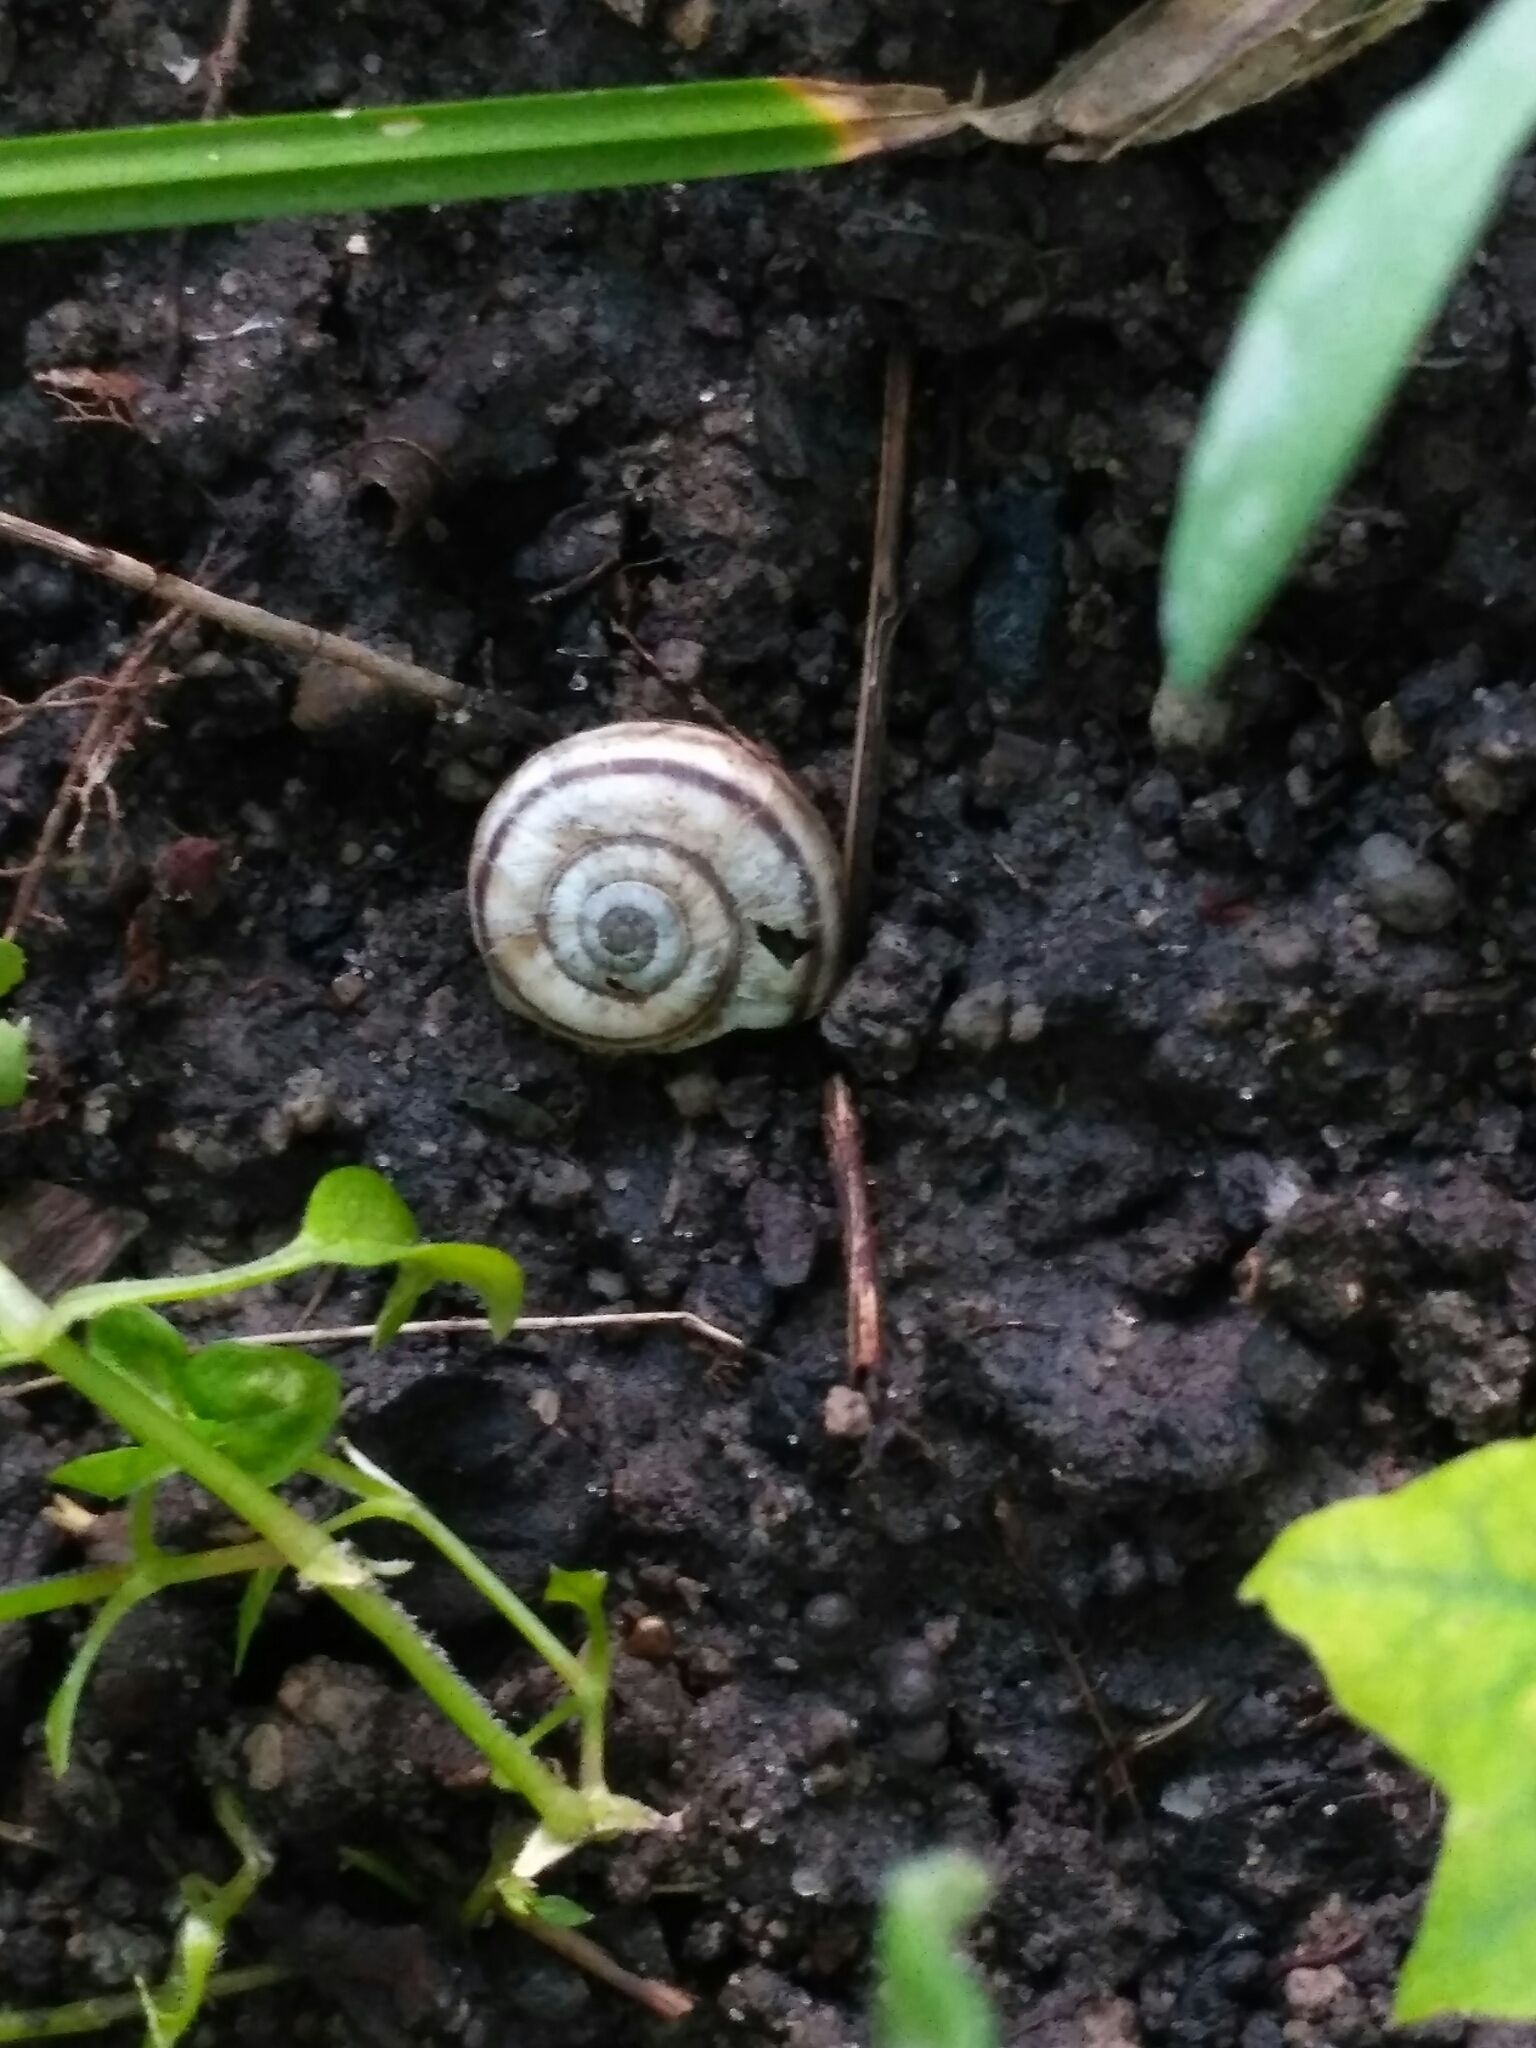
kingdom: Animalia
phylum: Mollusca
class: Gastropoda
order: Stylommatophora
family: Geomitridae
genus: Xerolenta
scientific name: Xerolenta obvia
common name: White heath snail
